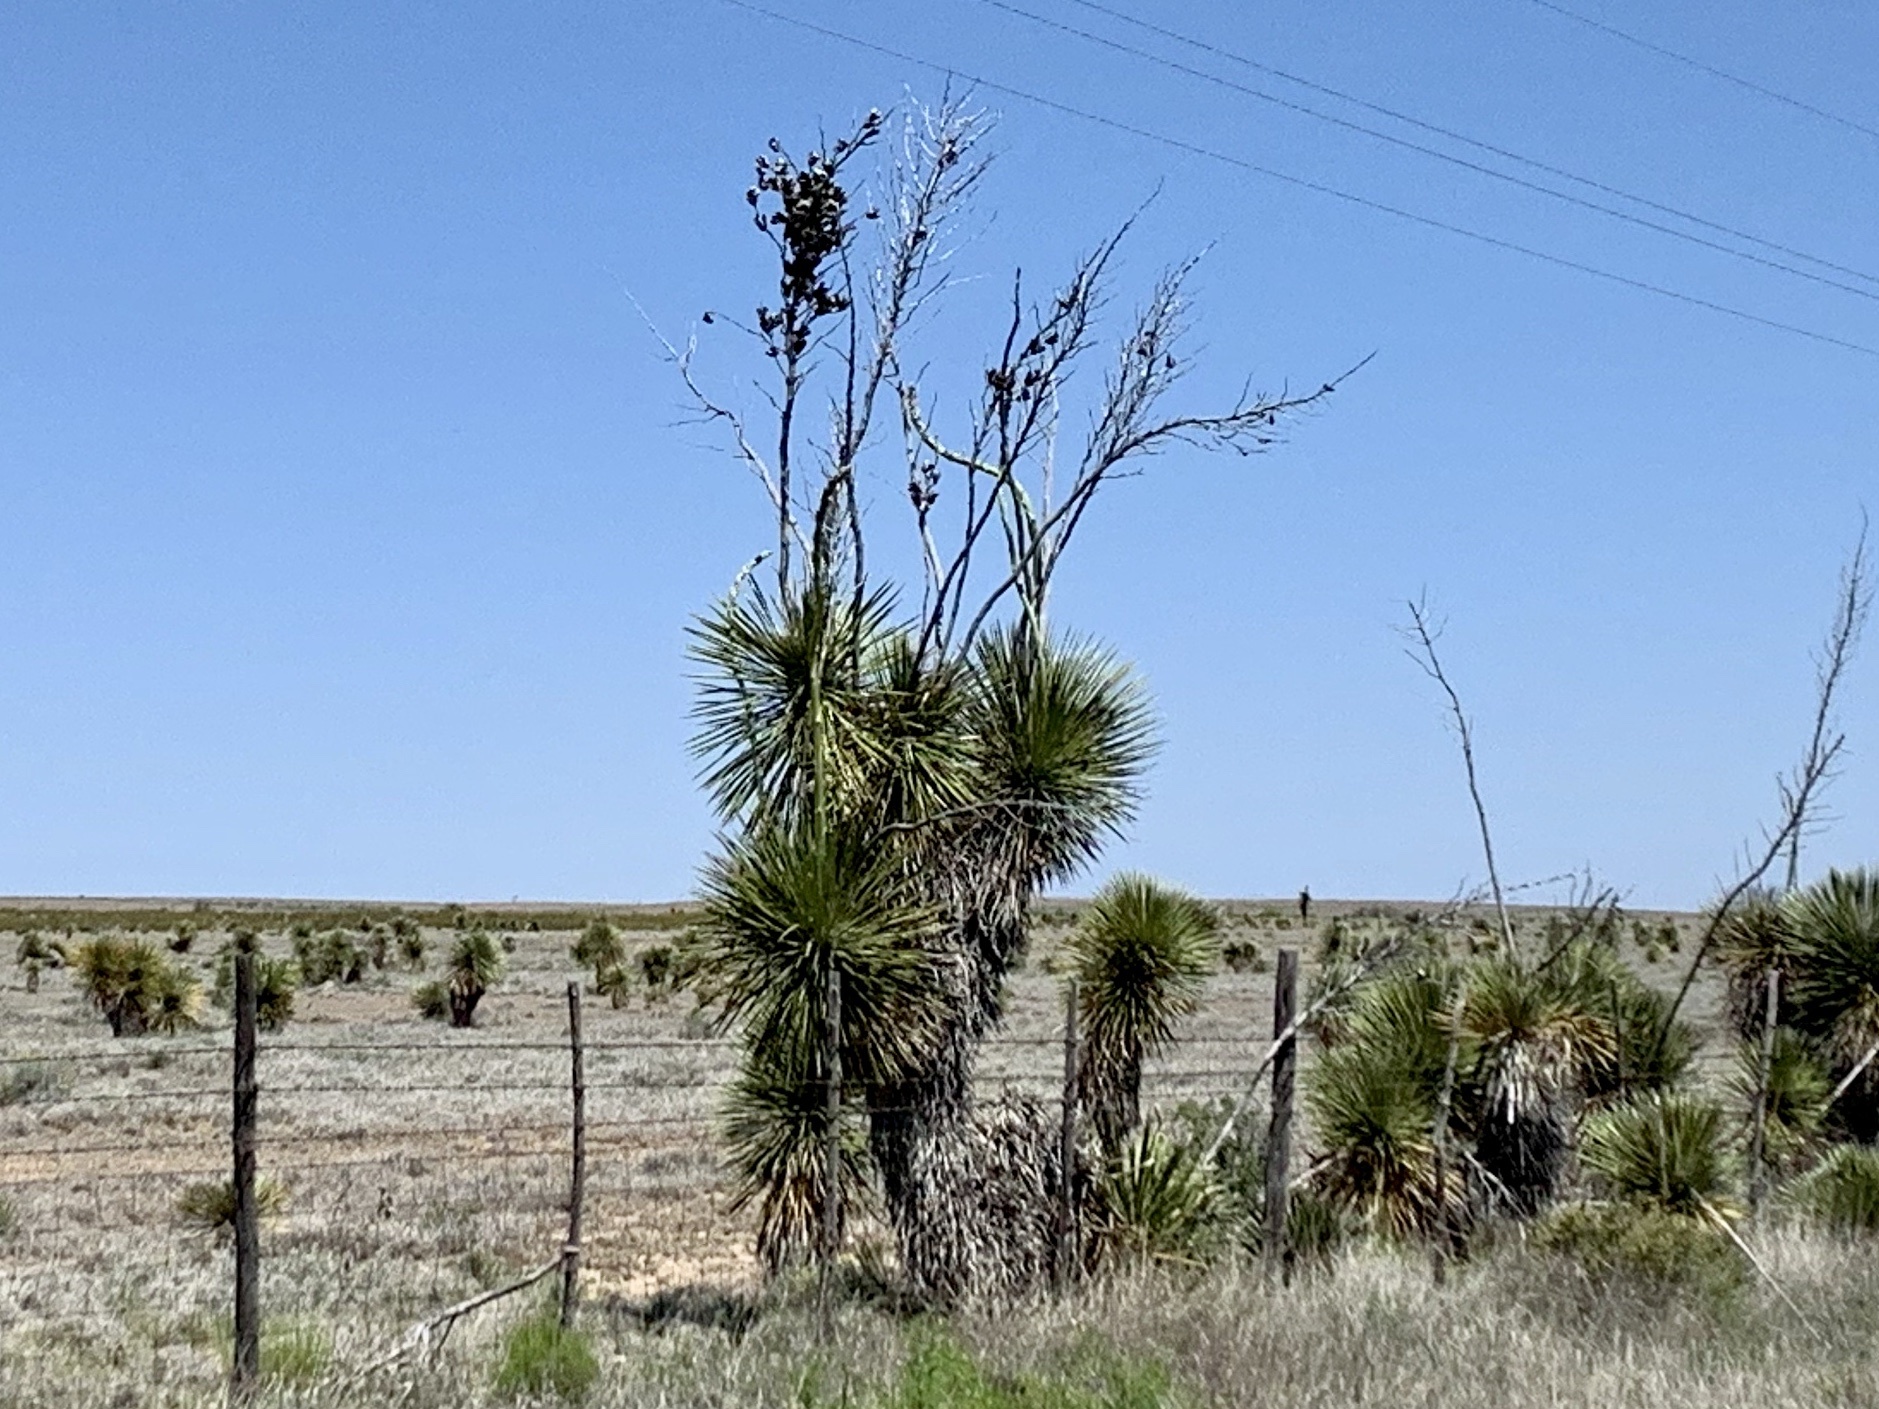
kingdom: Plantae
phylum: Tracheophyta
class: Liliopsida
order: Asparagales
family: Asparagaceae
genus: Yucca
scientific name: Yucca elata
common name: Palmella
